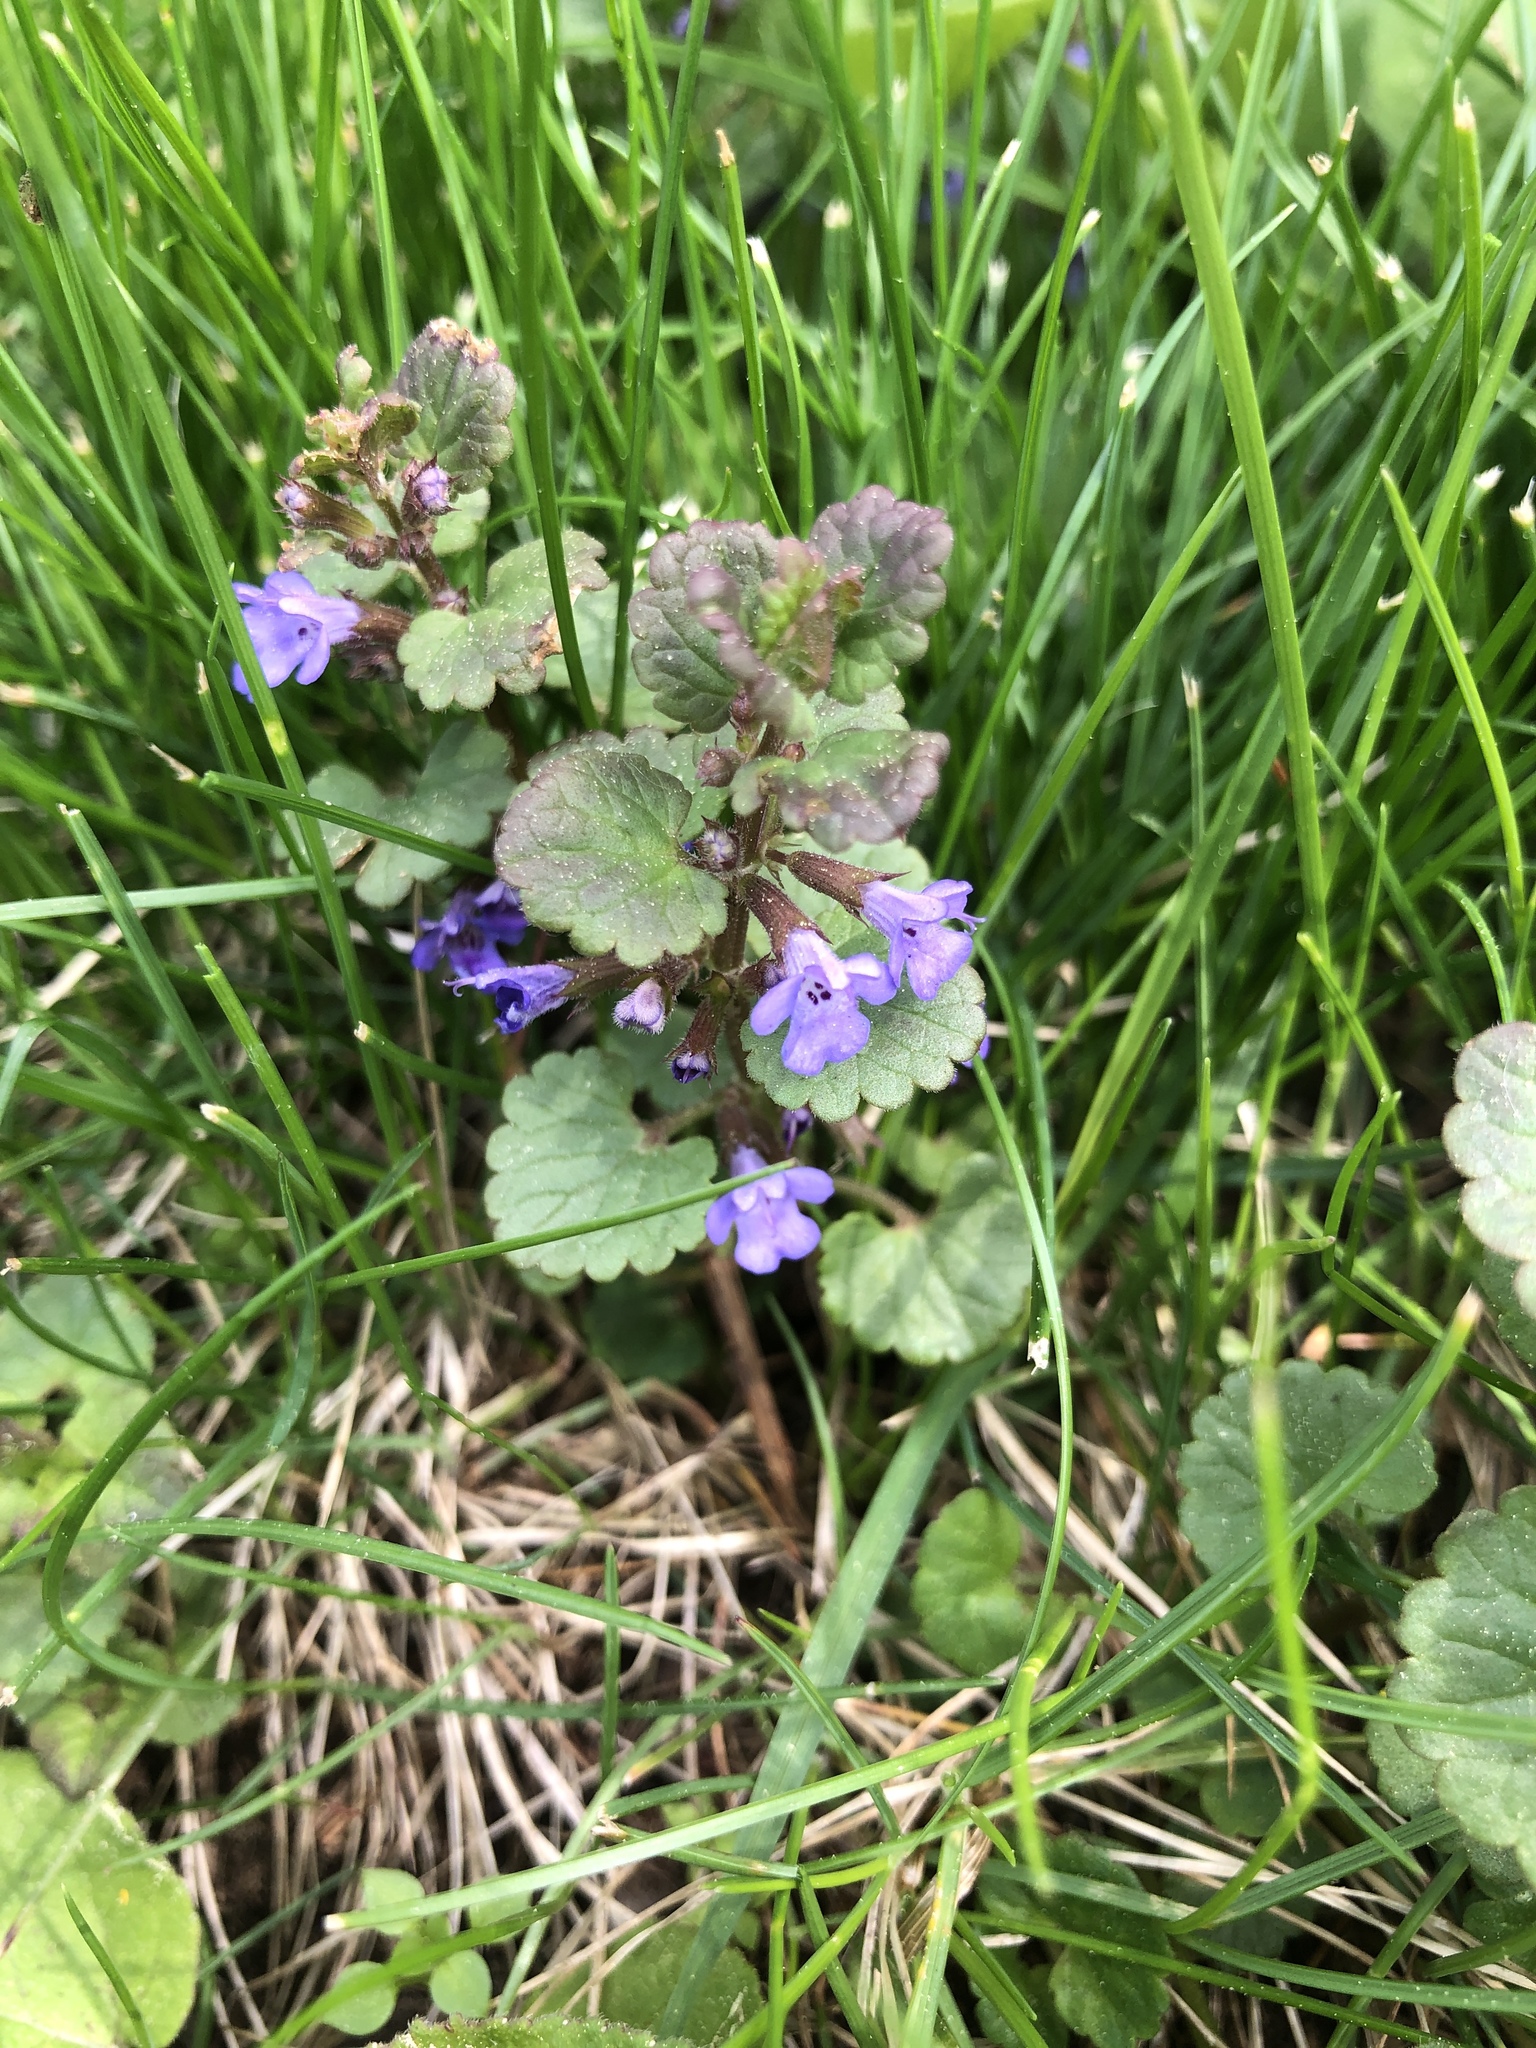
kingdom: Plantae
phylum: Tracheophyta
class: Magnoliopsida
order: Lamiales
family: Lamiaceae
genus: Glechoma
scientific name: Glechoma hederacea
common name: Ground ivy
